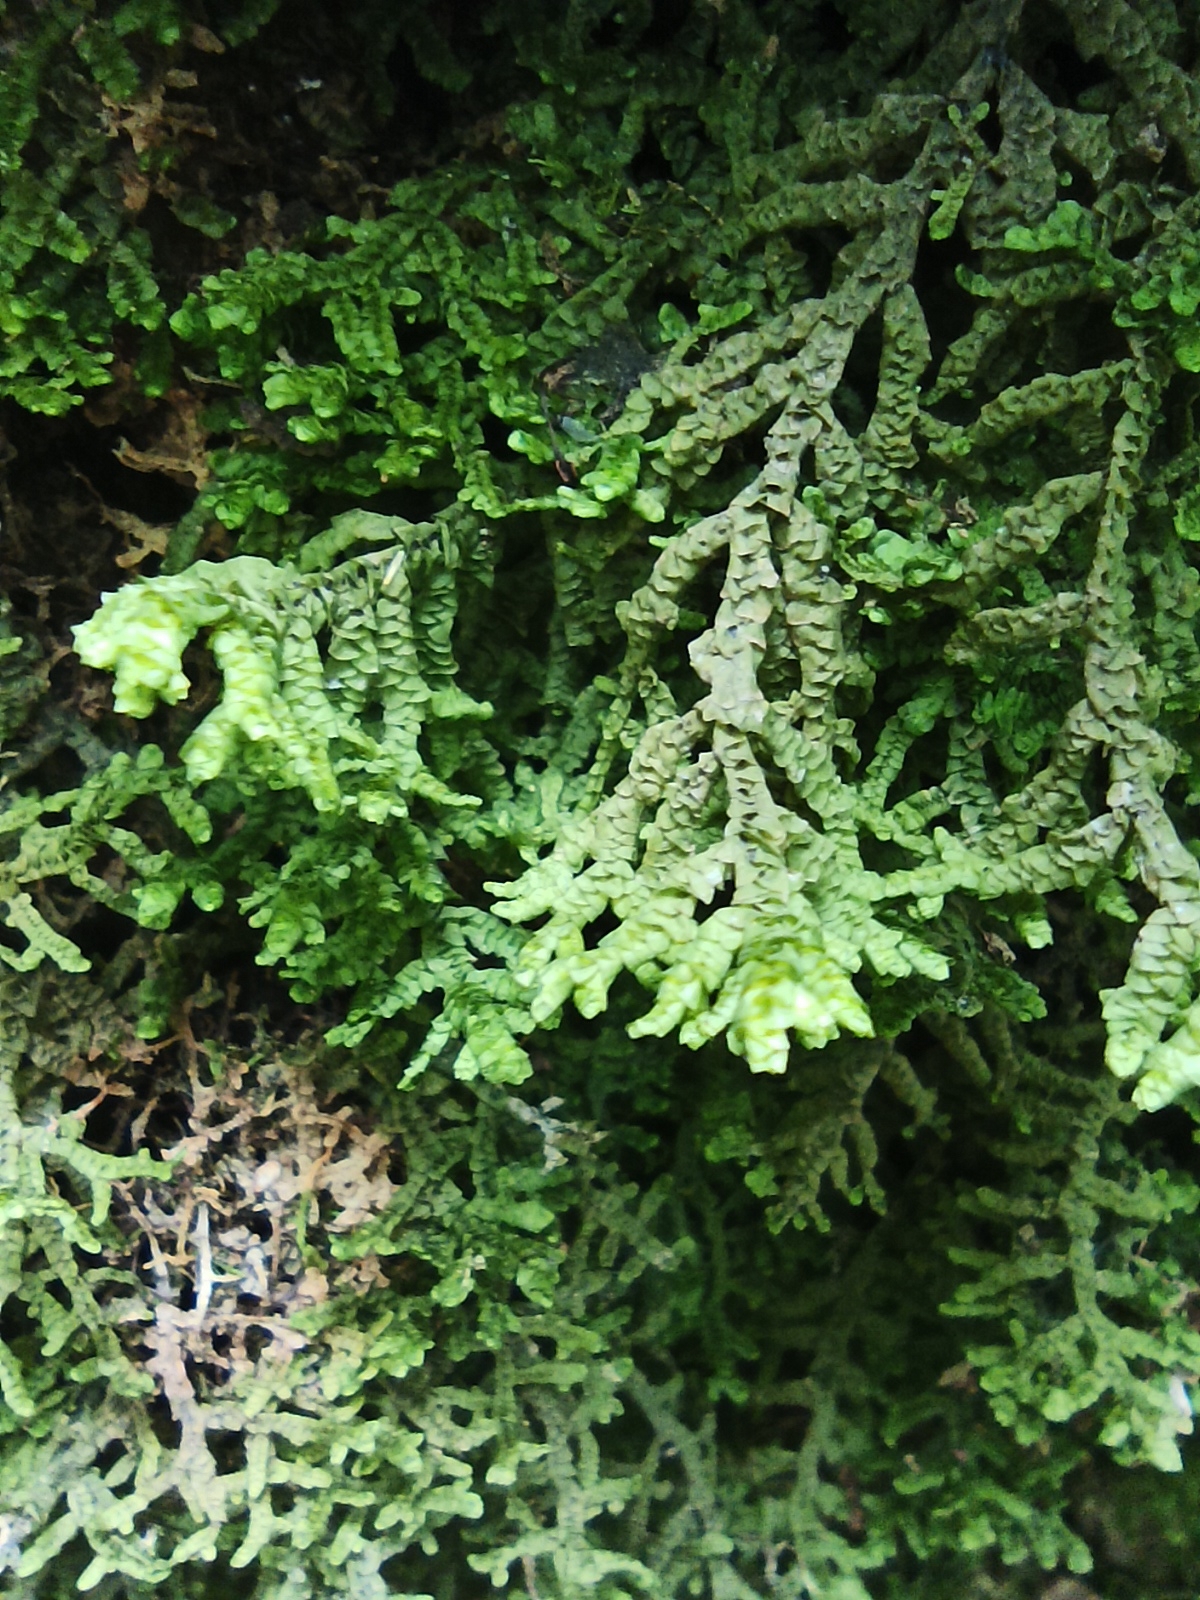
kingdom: Plantae
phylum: Marchantiophyta
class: Jungermanniopsida
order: Porellales
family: Porellaceae
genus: Porella
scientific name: Porella platyphylla
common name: Wall scalewort
